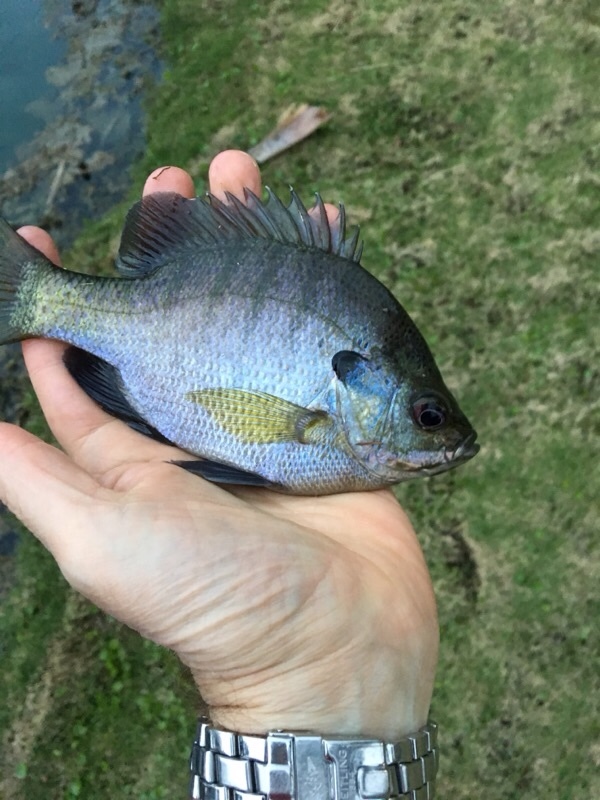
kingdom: Animalia
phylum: Chordata
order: Perciformes
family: Centrarchidae
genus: Lepomis
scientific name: Lepomis macrochirus
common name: Bluegill
